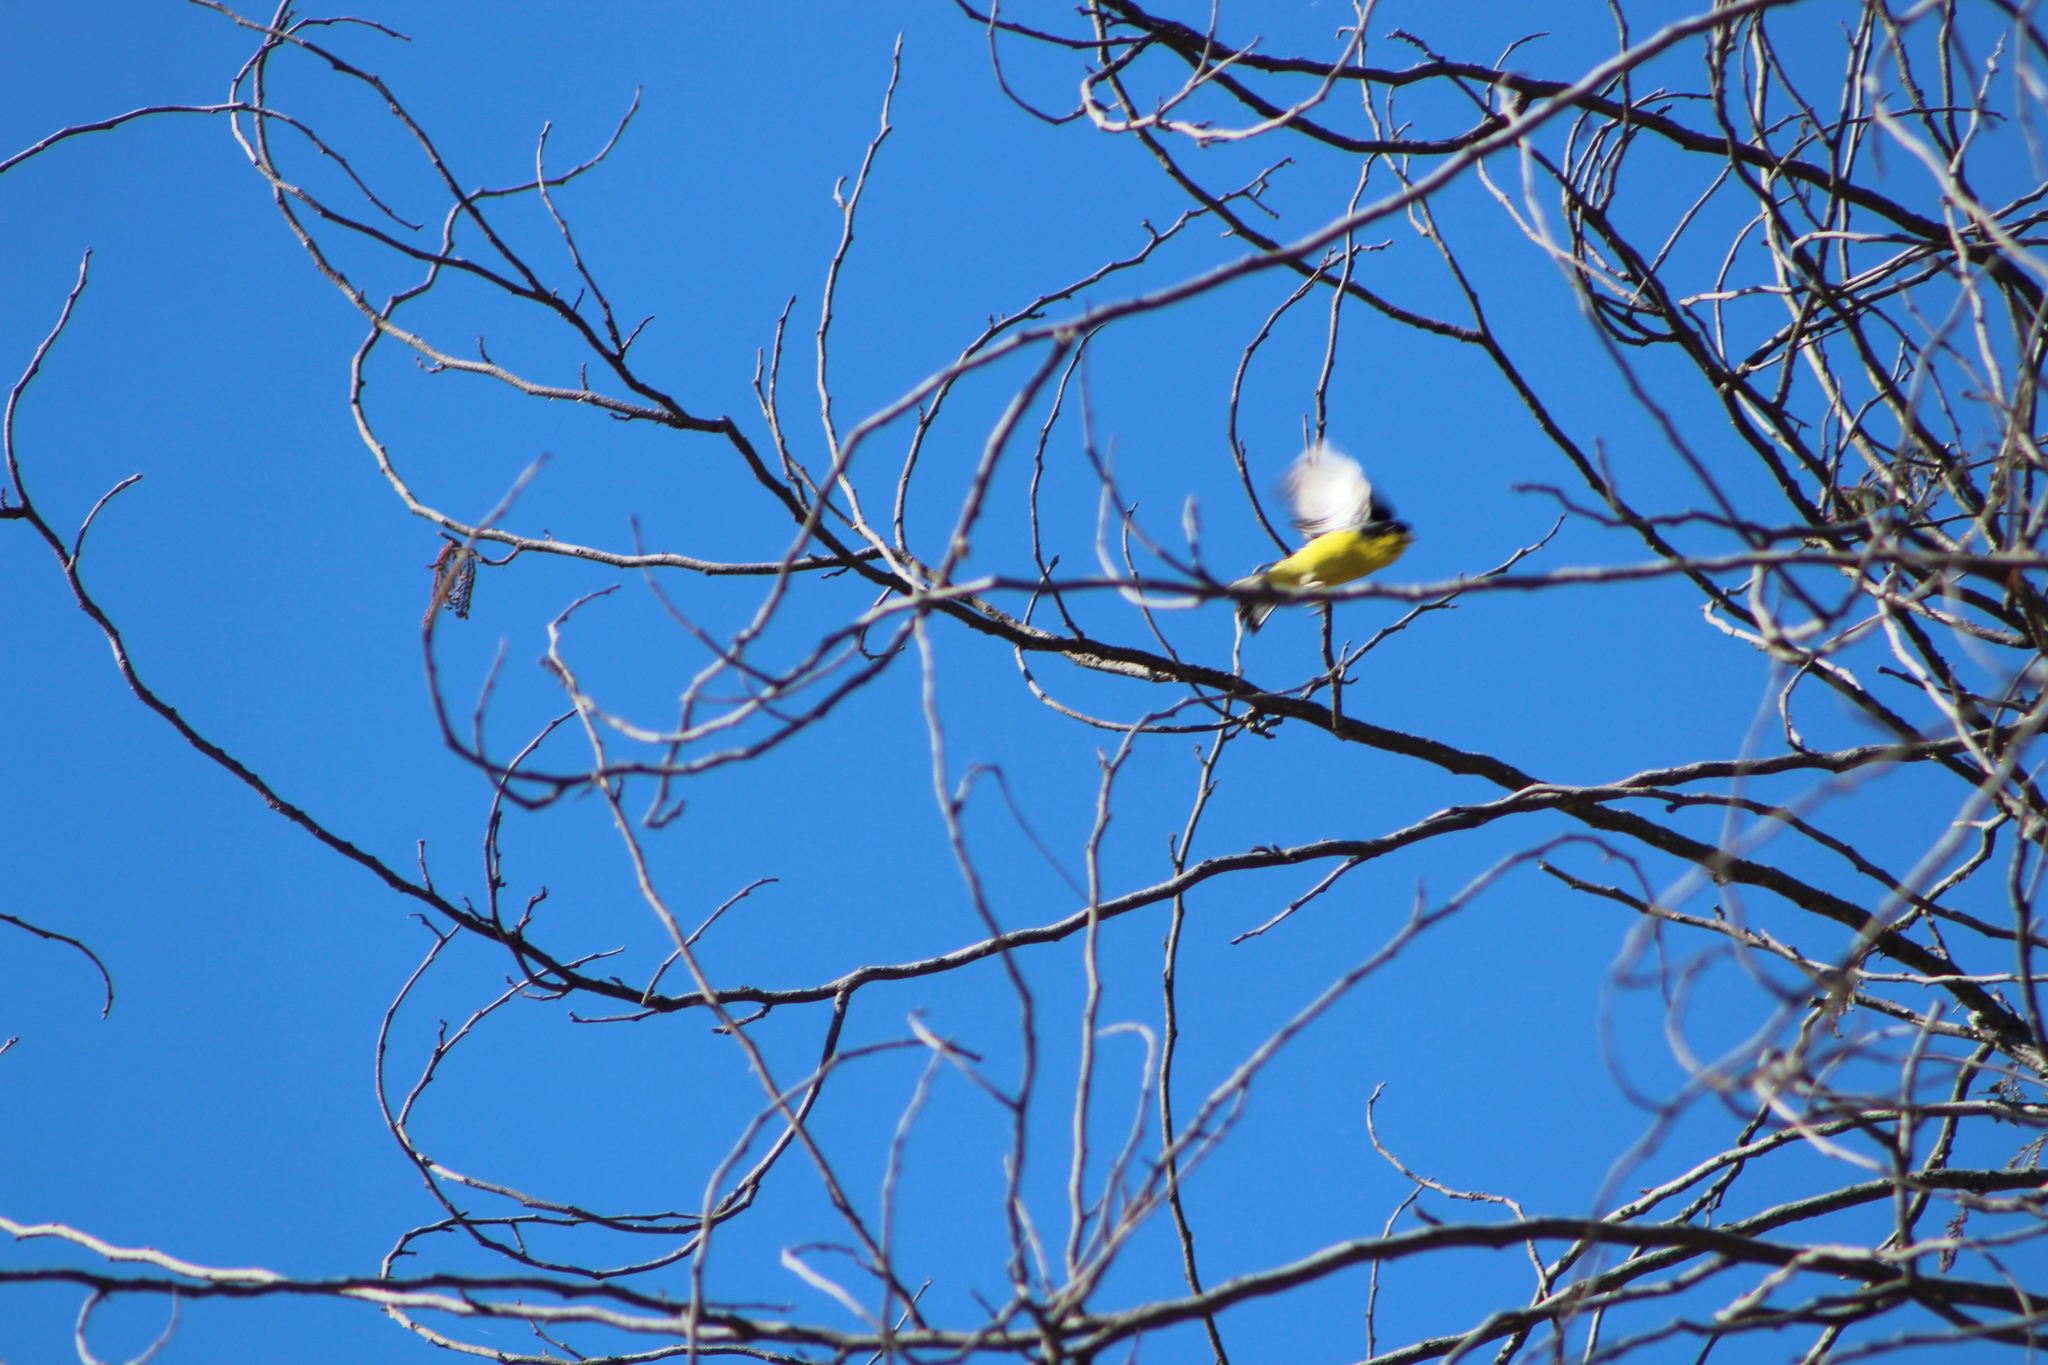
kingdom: Animalia
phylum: Chordata
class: Aves
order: Passeriformes
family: Fringillidae
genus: Spinus
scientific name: Spinus psaltria
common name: Lesser goldfinch
